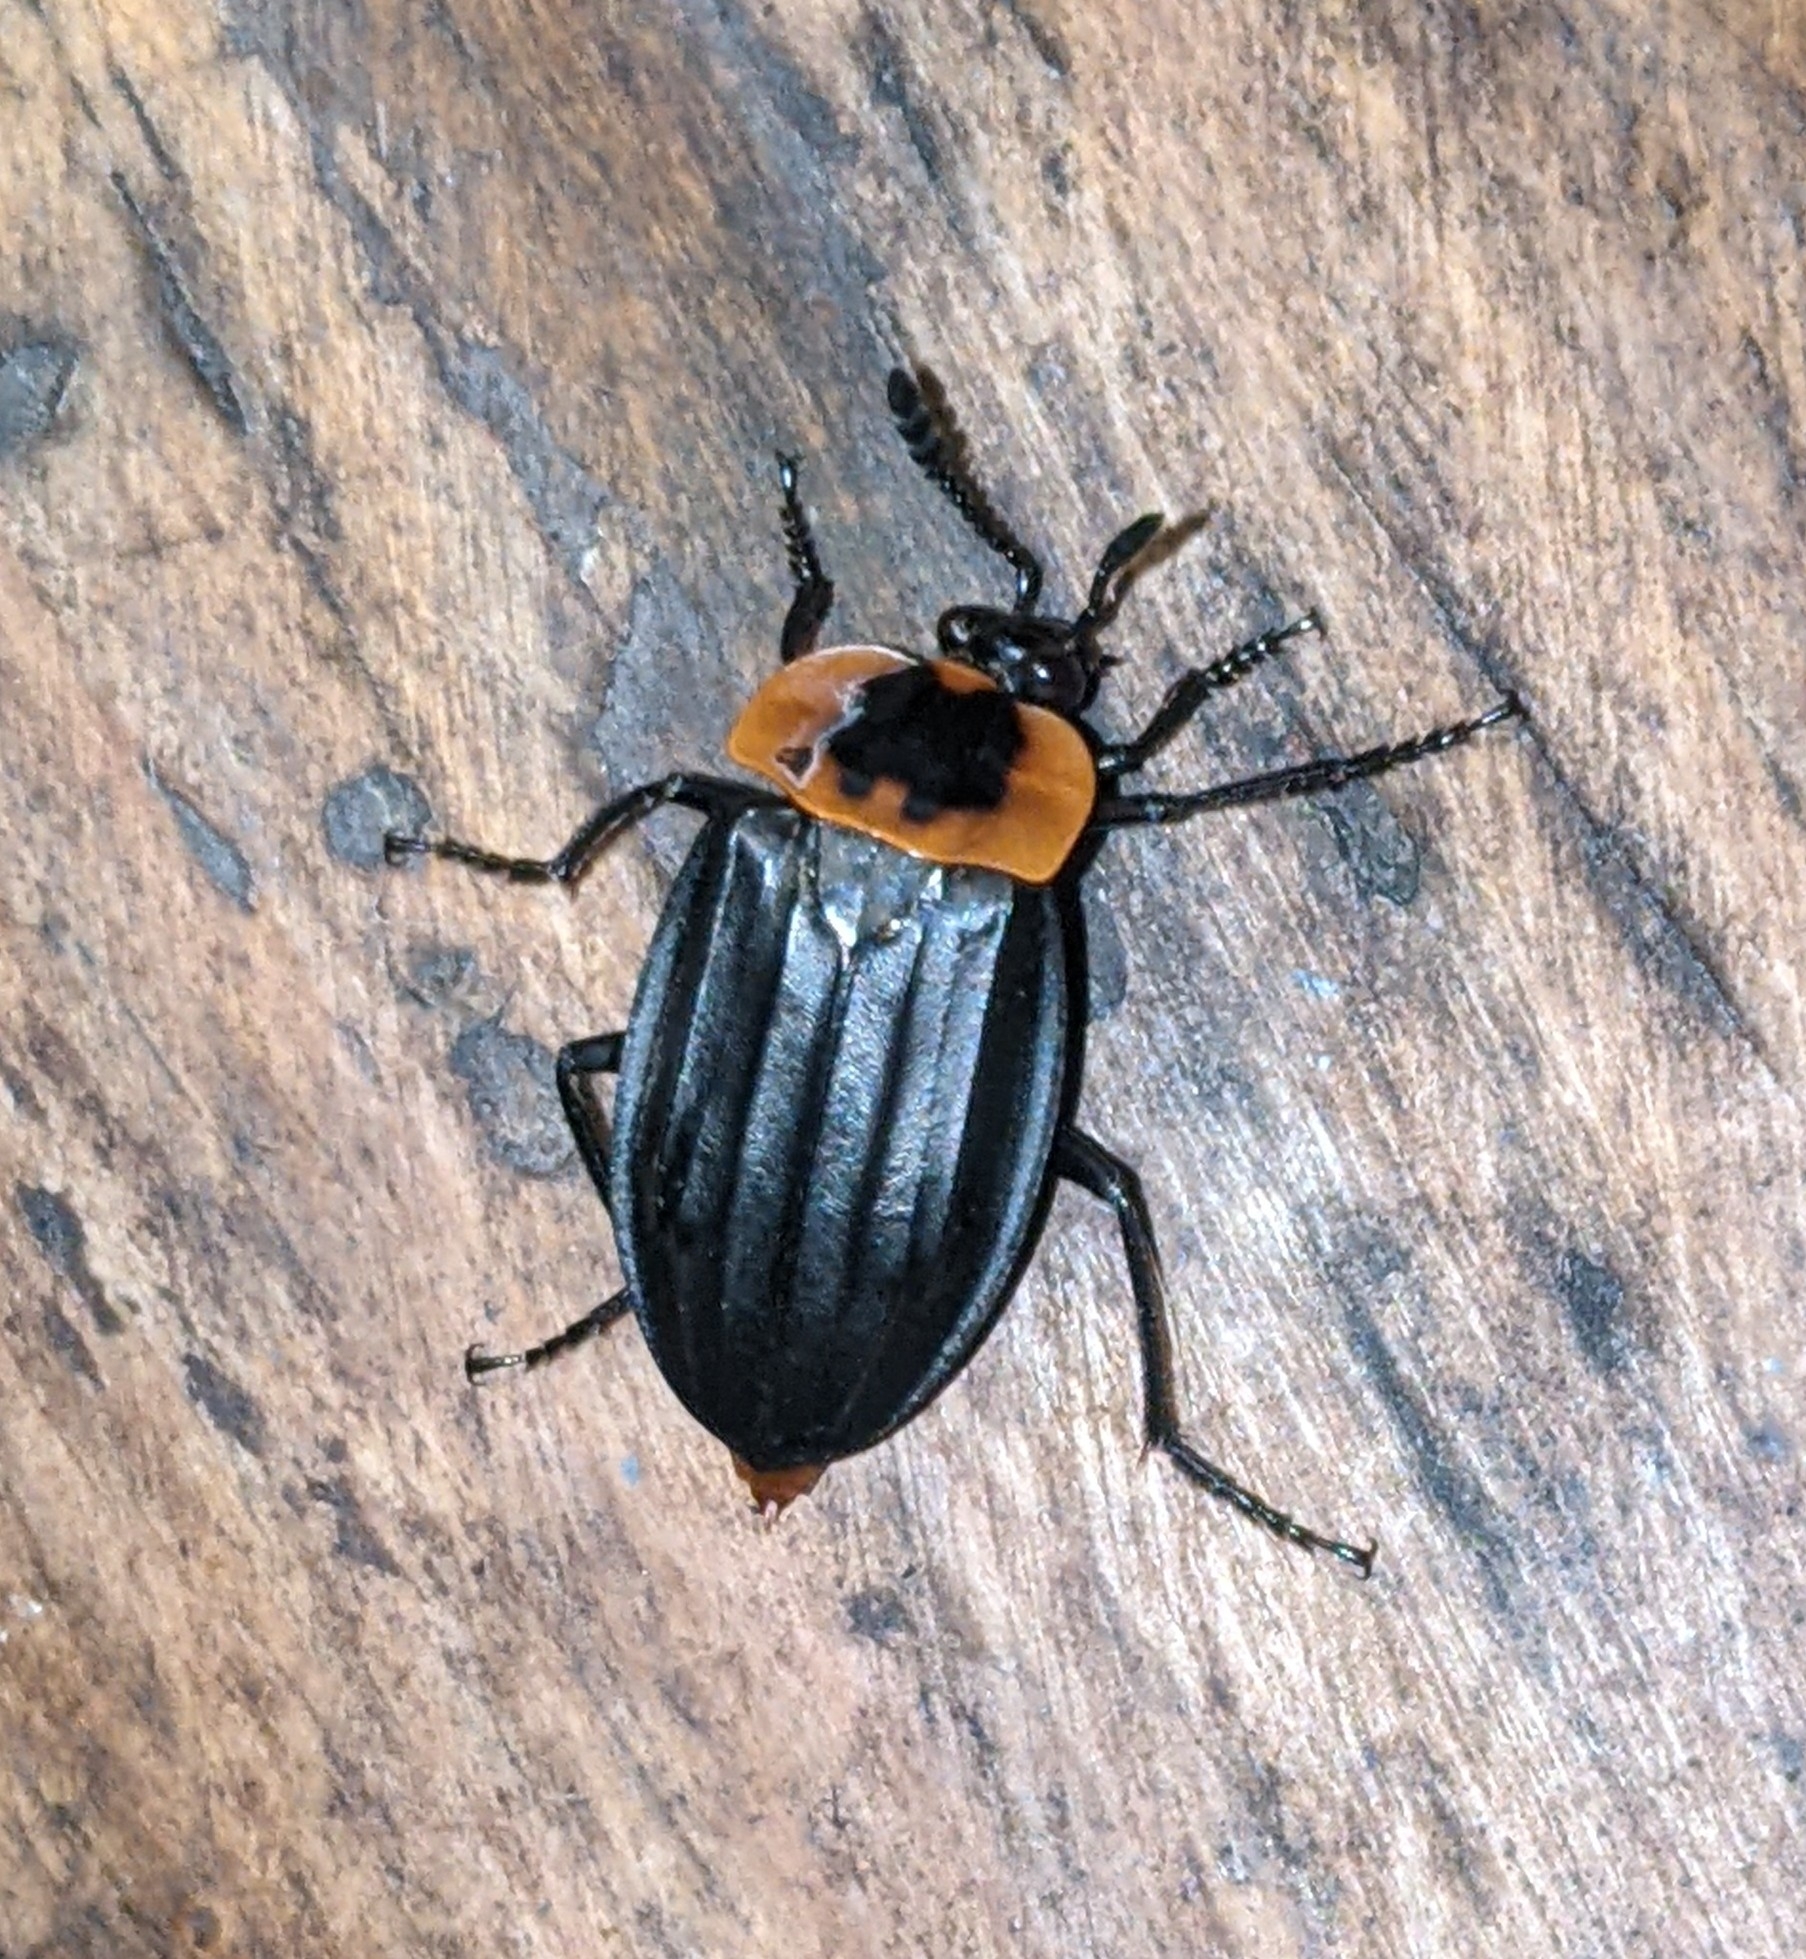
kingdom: Animalia
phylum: Arthropoda
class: Insecta
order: Coleoptera
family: Staphylinidae
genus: Oxelytrum
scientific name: Oxelytrum discicolle
